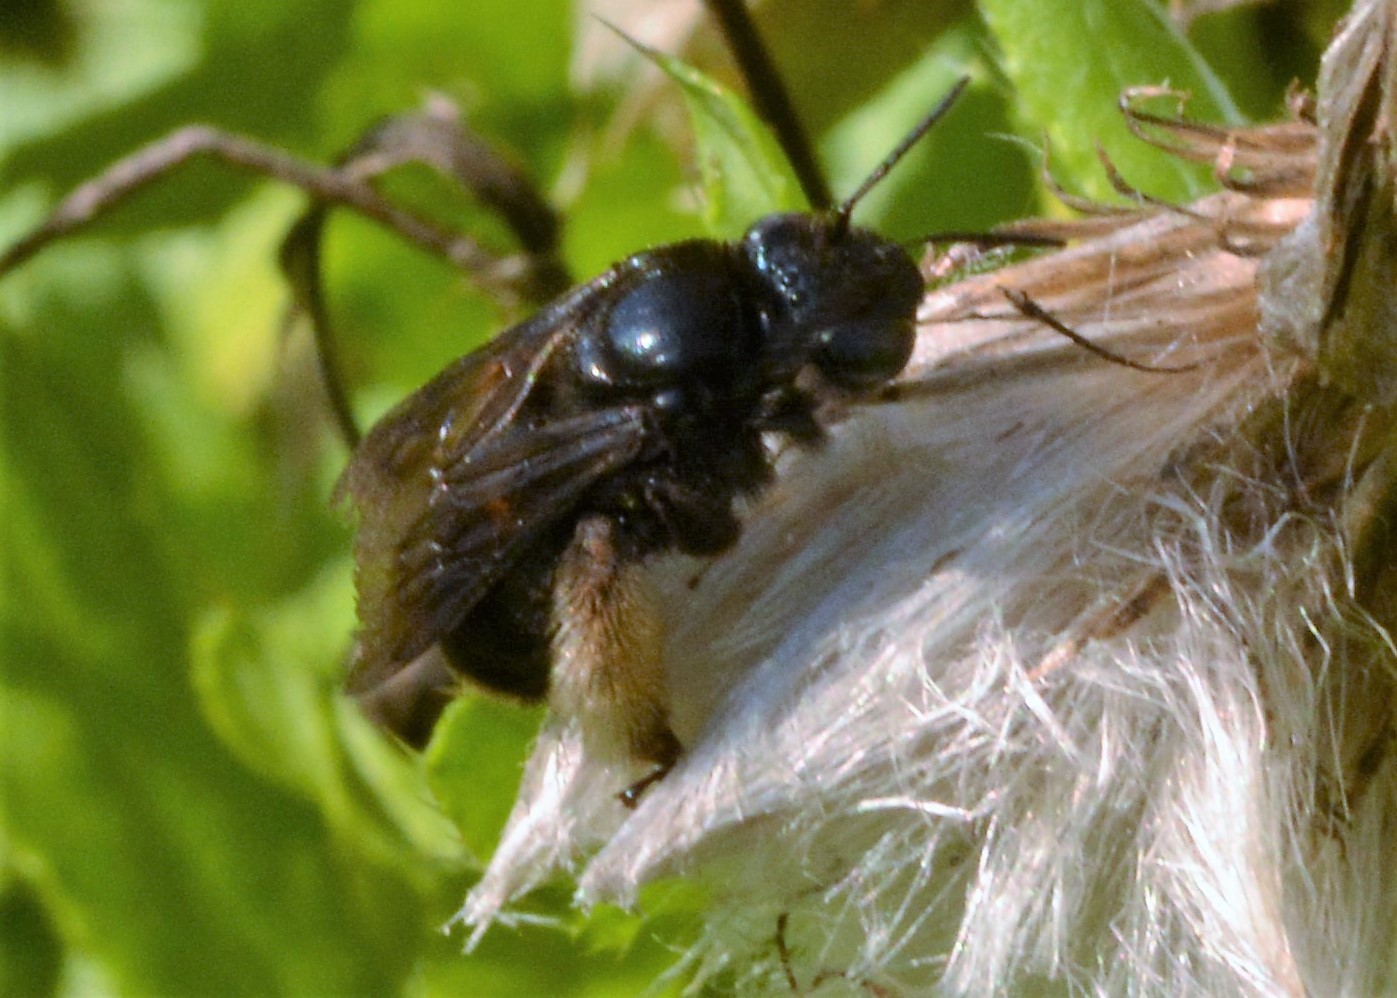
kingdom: Animalia
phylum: Arthropoda
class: Insecta
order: Hymenoptera
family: Apidae
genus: Melissodes
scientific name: Melissodes bimaculatus
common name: Two-spotted long-horned bee
